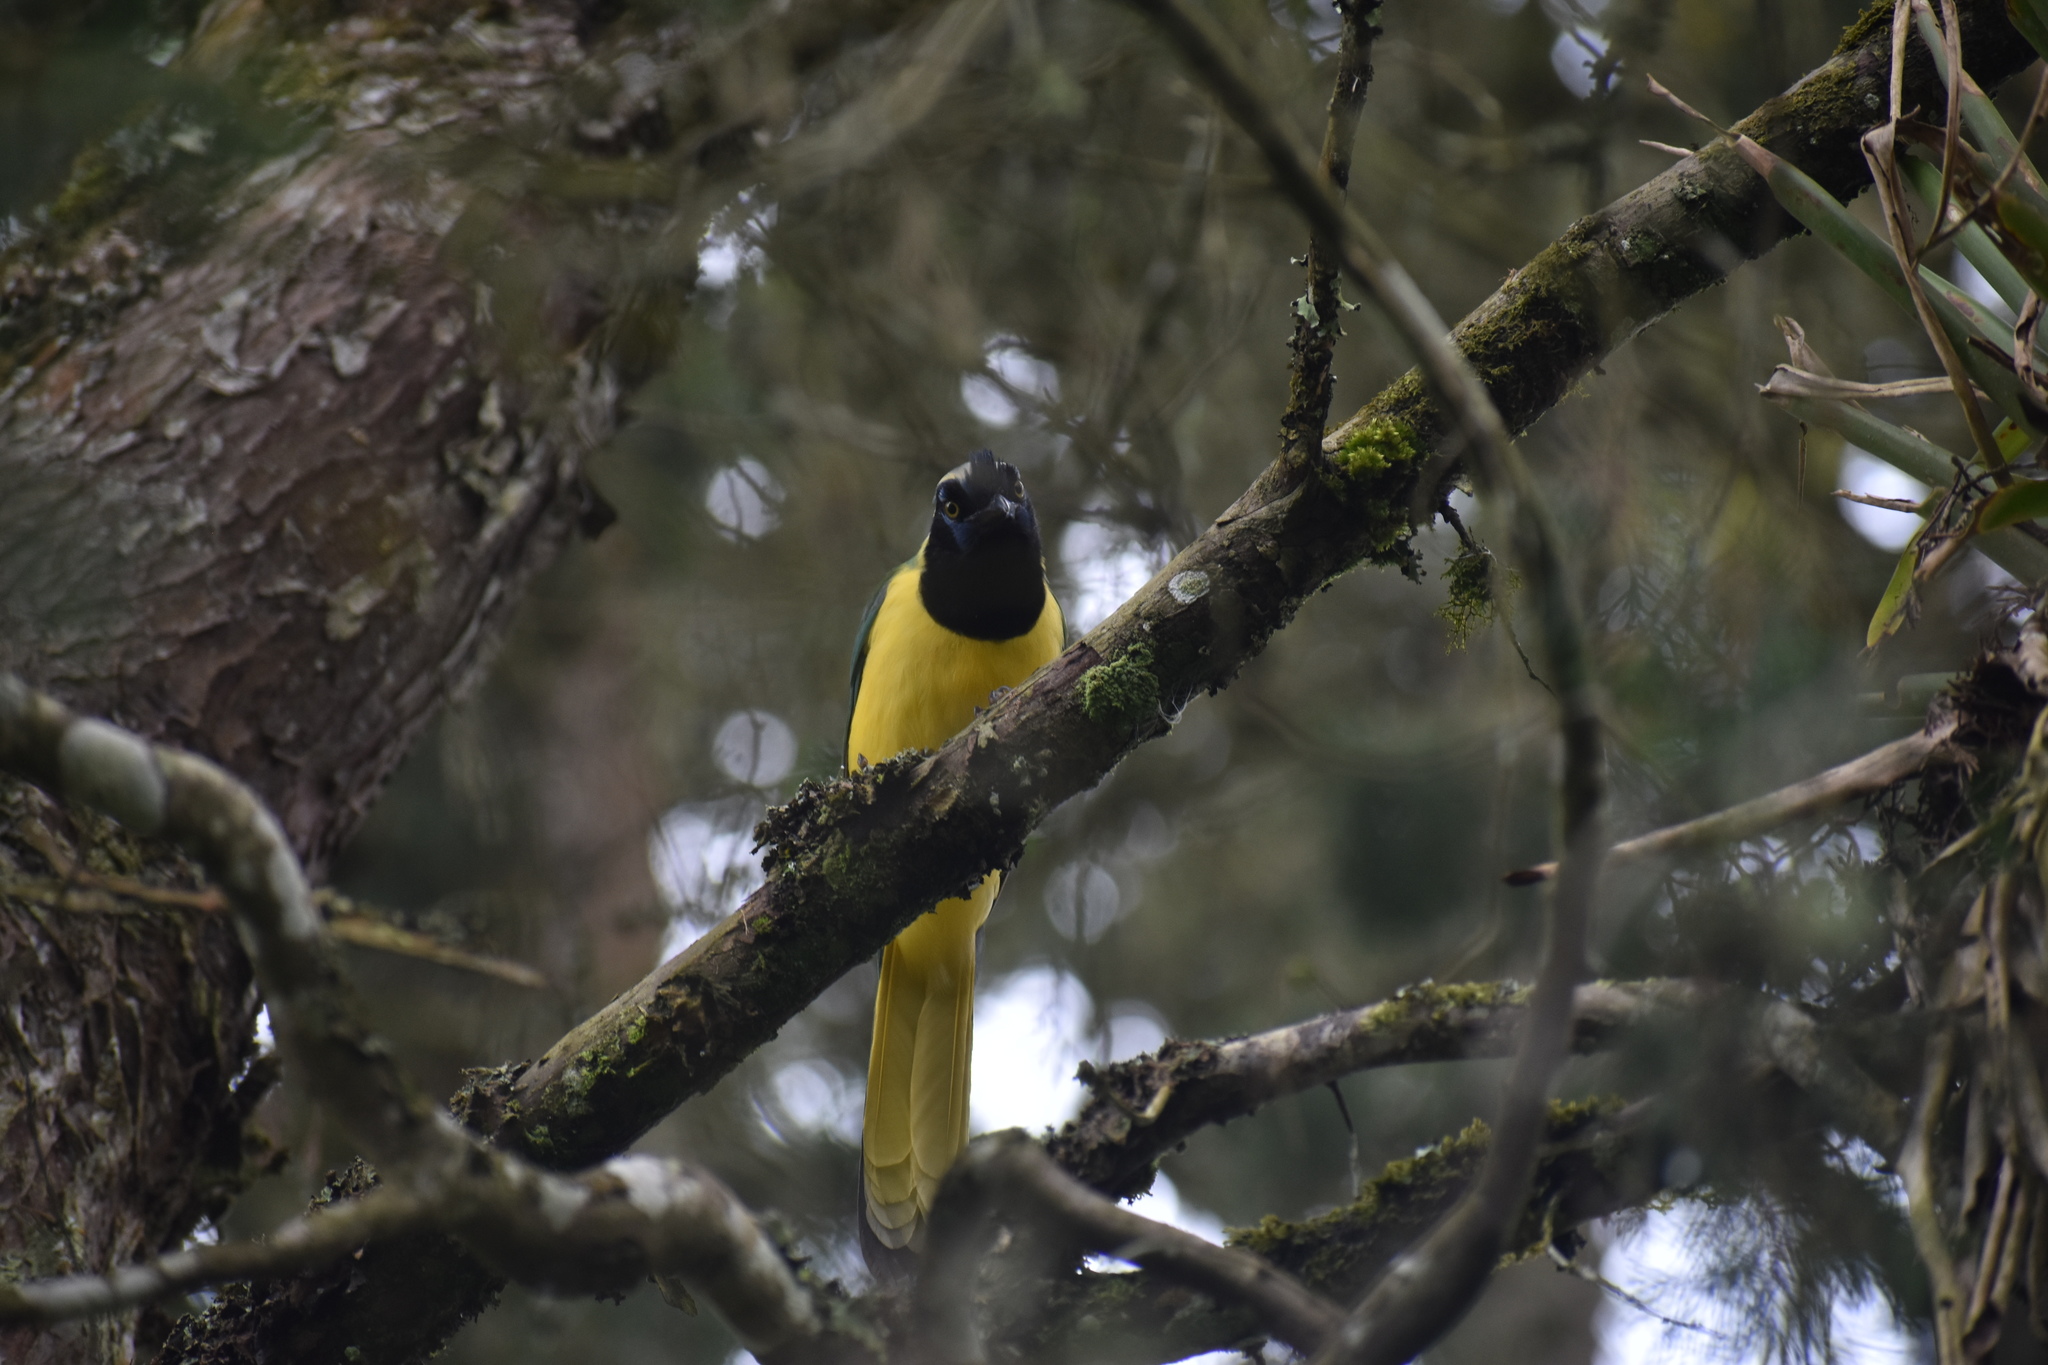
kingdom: Animalia
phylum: Chordata
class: Aves
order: Passeriformes
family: Corvidae
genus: Cyanocorax
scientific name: Cyanocorax yncas
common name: Green jay
